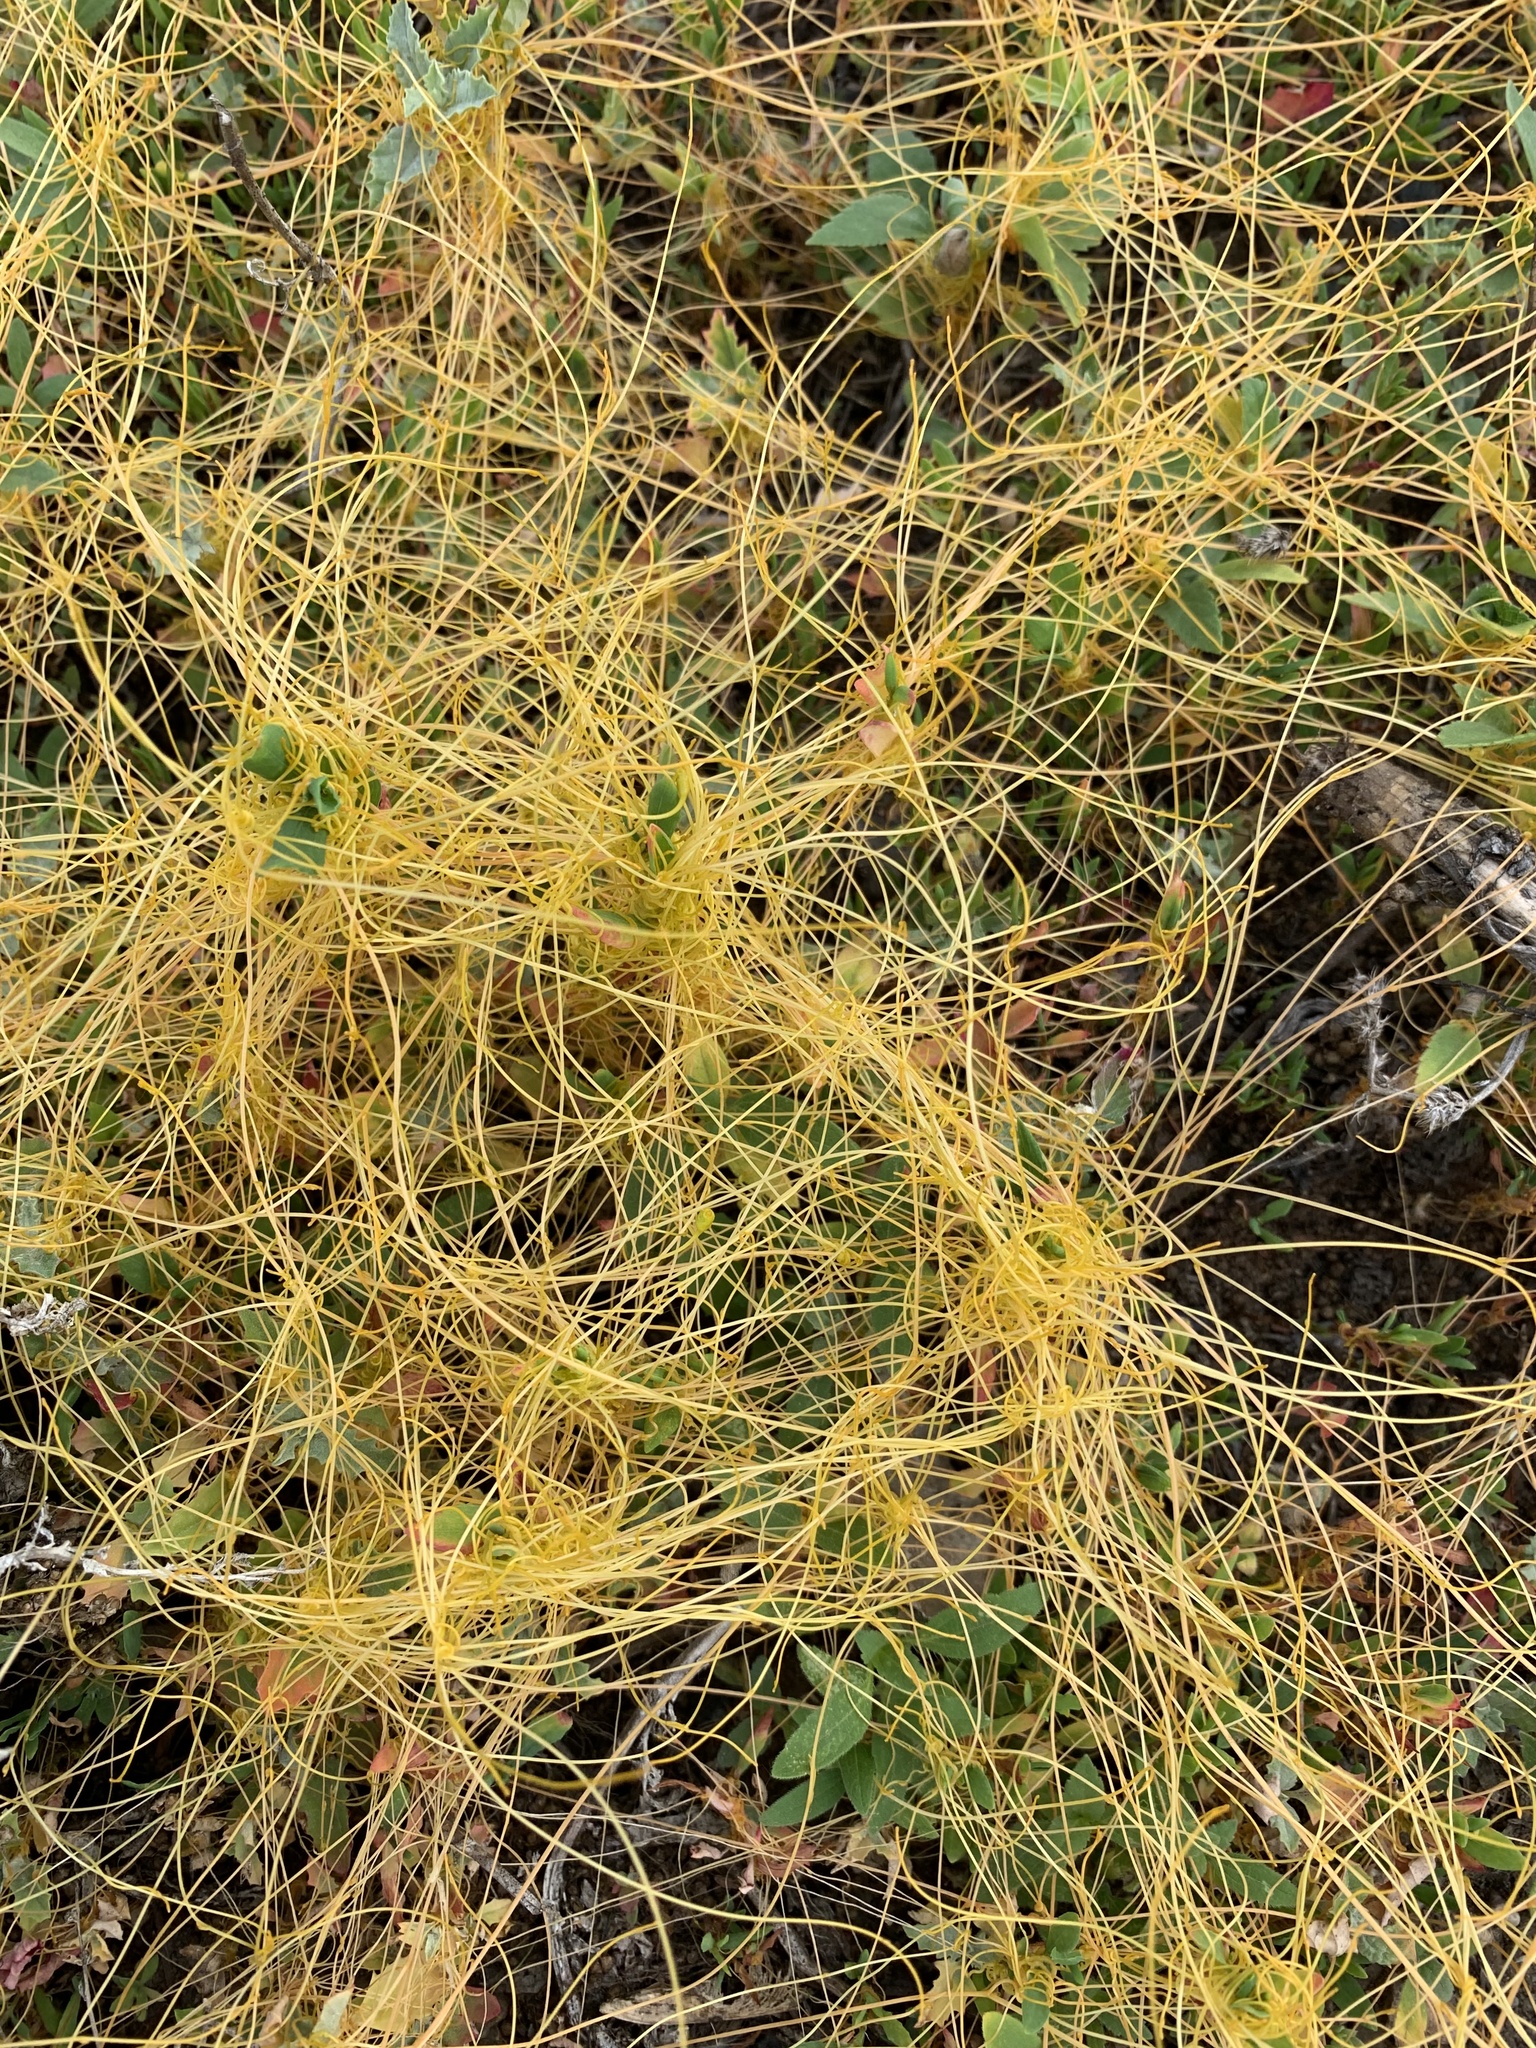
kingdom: Plantae
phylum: Tracheophyta
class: Magnoliopsida
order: Solanales
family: Convolvulaceae
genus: Cuscuta
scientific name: Cuscuta campestris
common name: Yellow dodder
